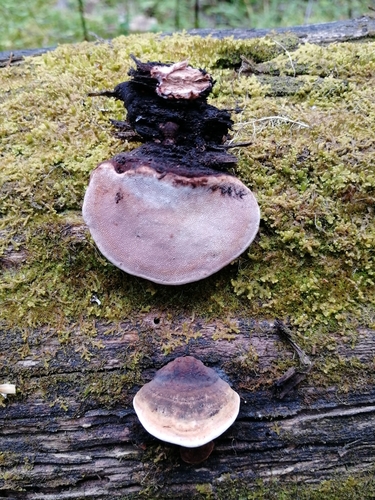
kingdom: Fungi
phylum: Basidiomycota
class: Agaricomycetes
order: Polyporales
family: Fomitopsidaceae
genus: Rhodofomes
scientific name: Rhodofomes roseus
